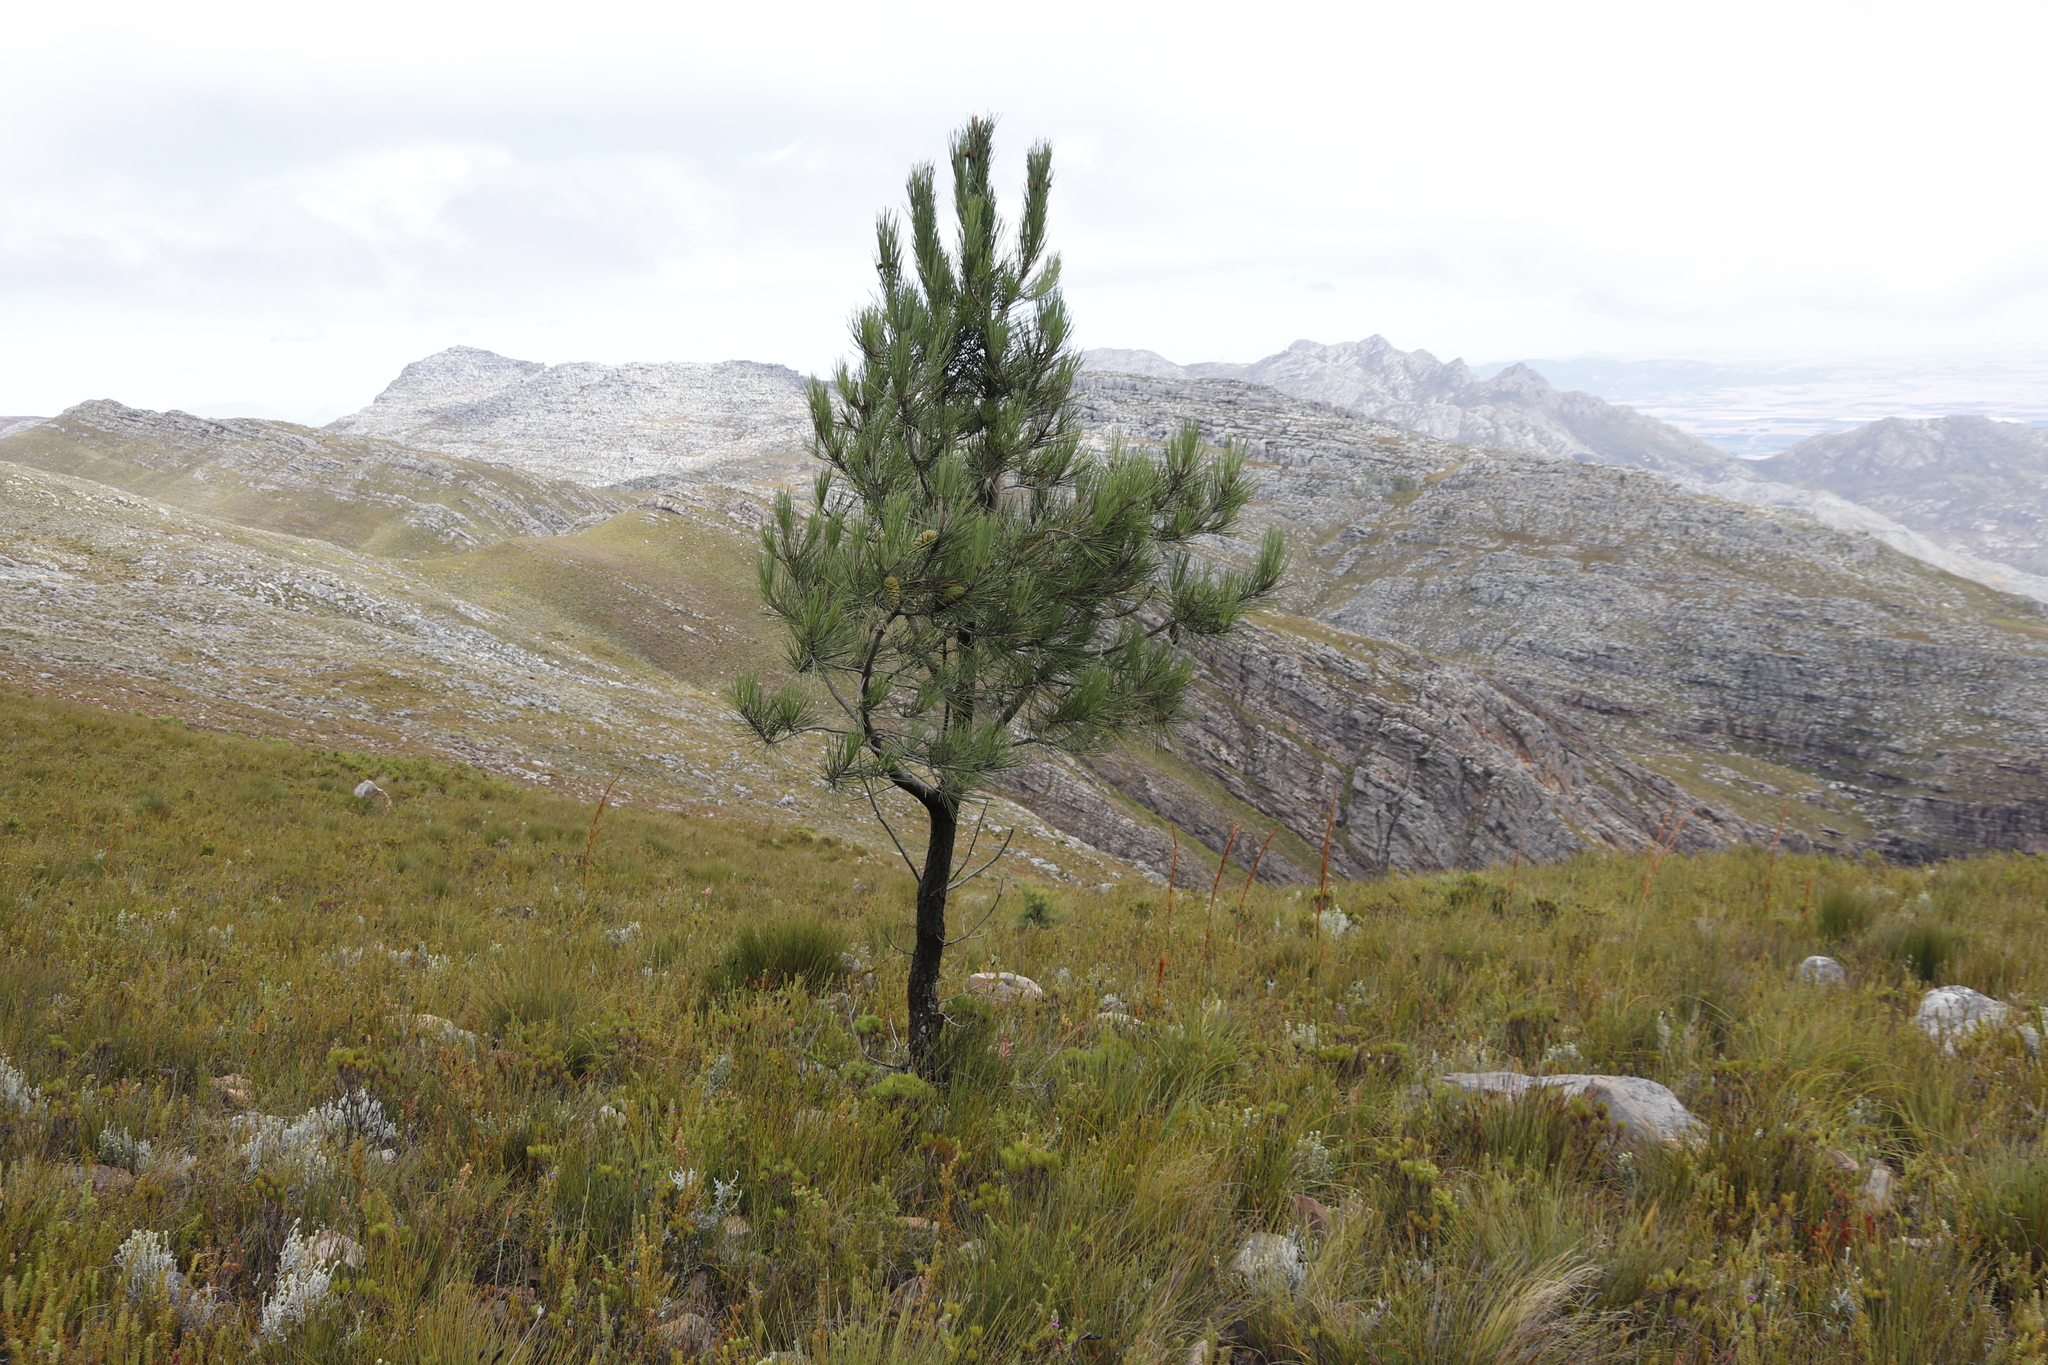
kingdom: Plantae
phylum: Tracheophyta
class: Pinopsida
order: Pinales
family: Pinaceae
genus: Pinus
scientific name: Pinus pinaster
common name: Maritime pine
